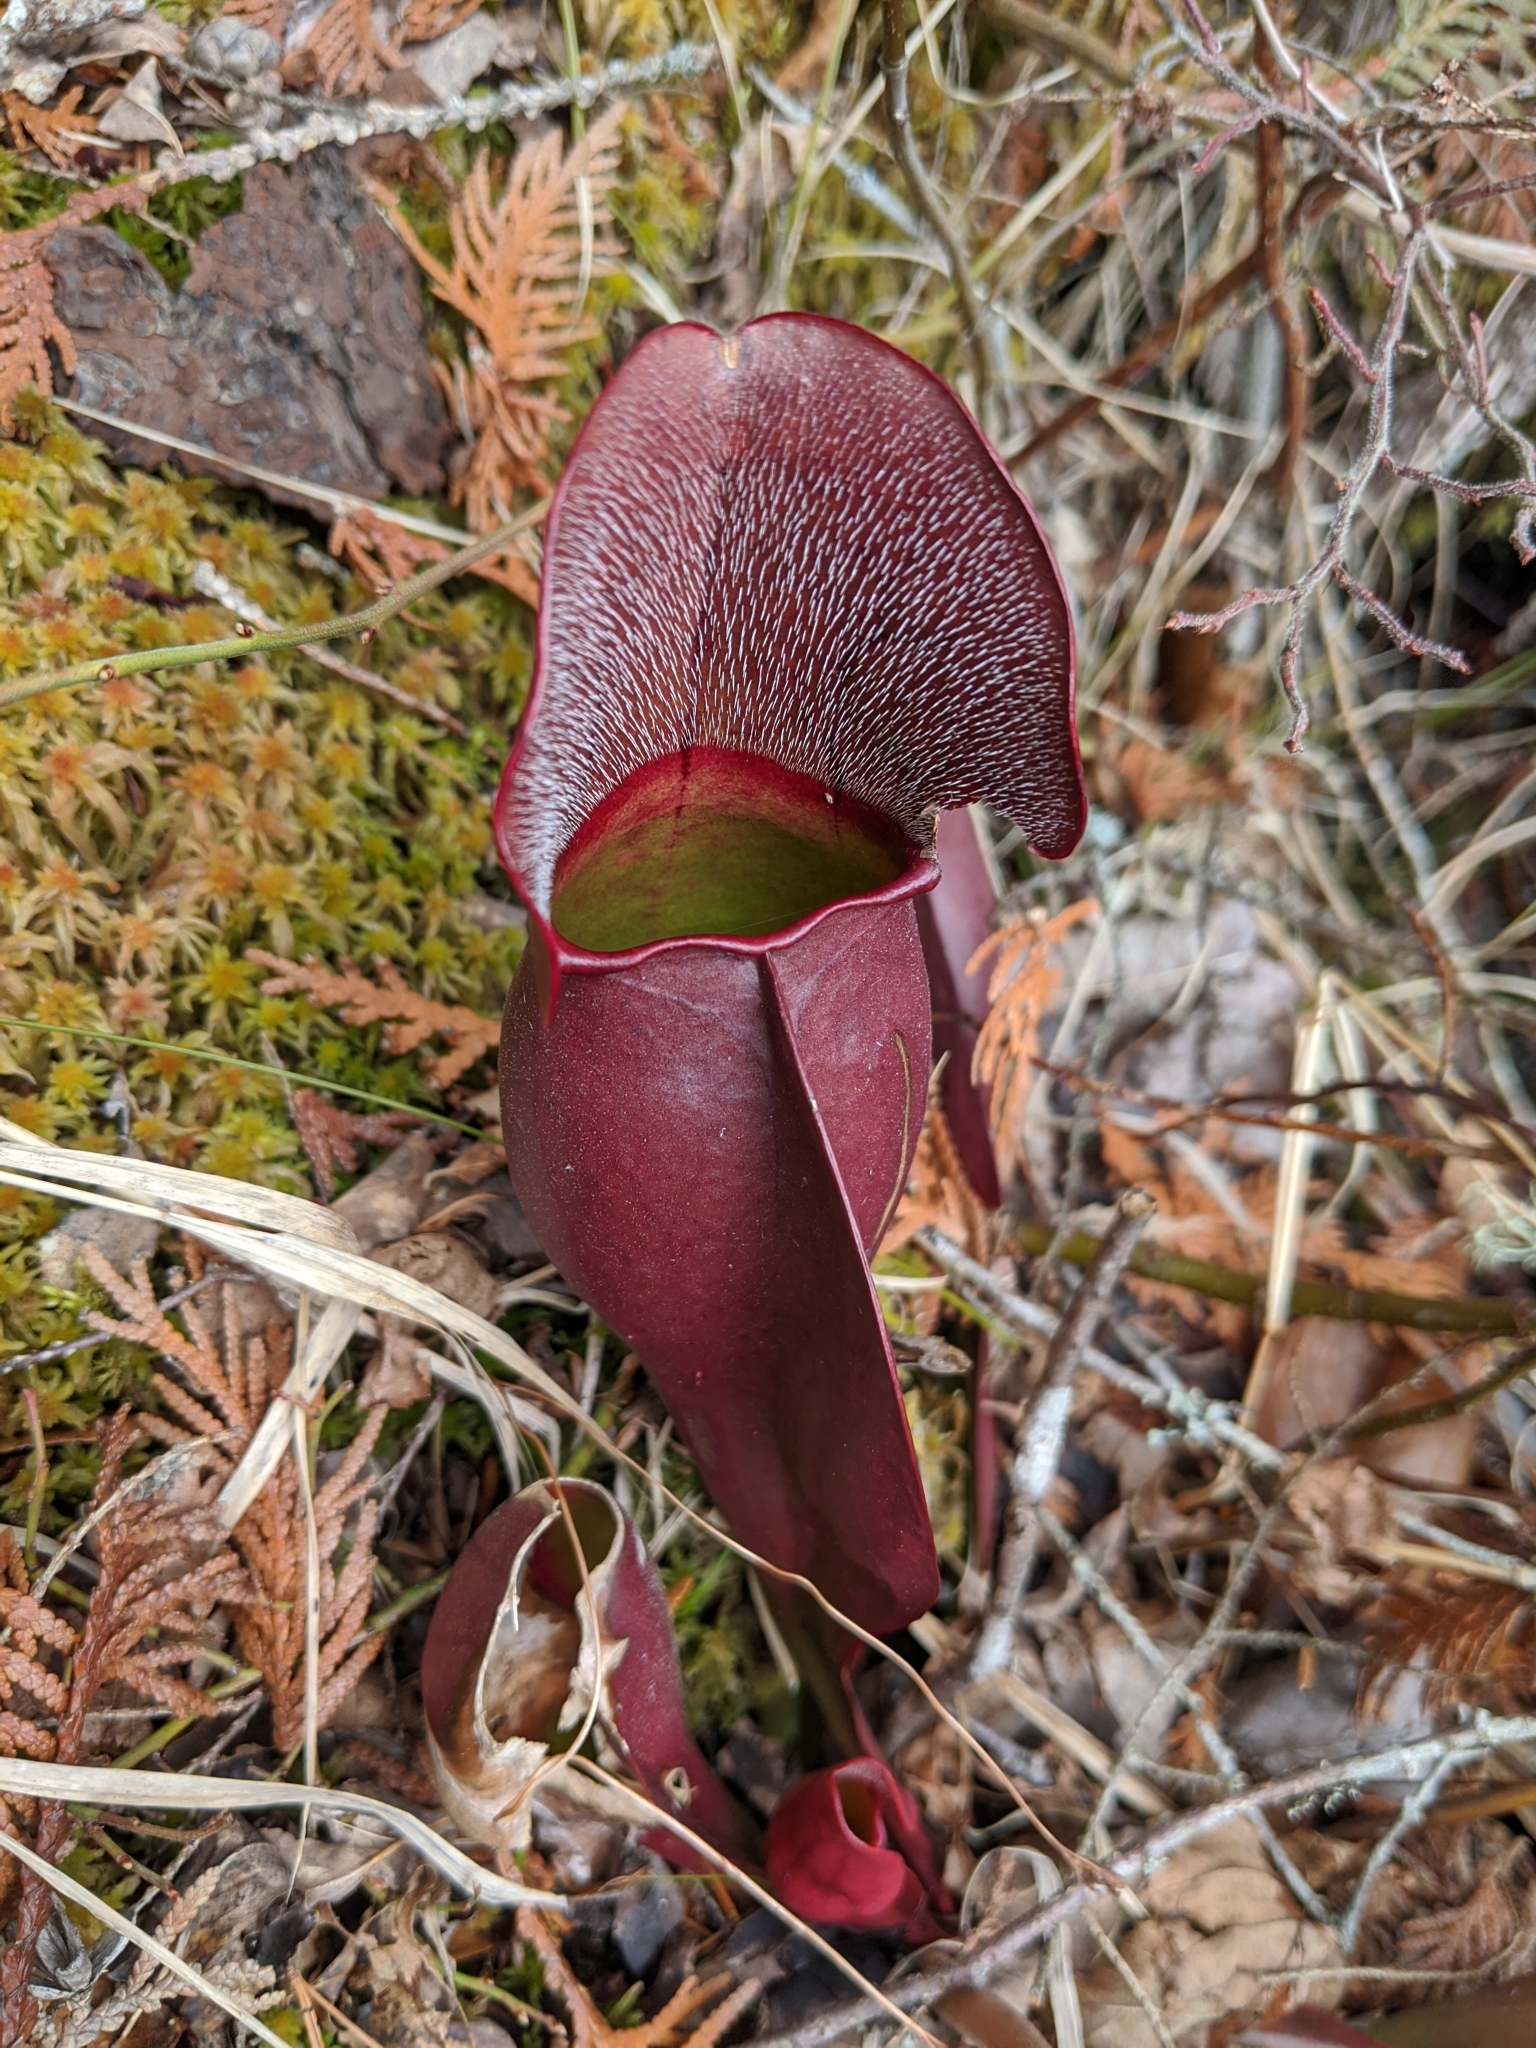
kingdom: Plantae
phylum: Tracheophyta
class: Magnoliopsida
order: Ericales
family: Sarraceniaceae
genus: Sarracenia
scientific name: Sarracenia purpurea
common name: Pitcherplant
